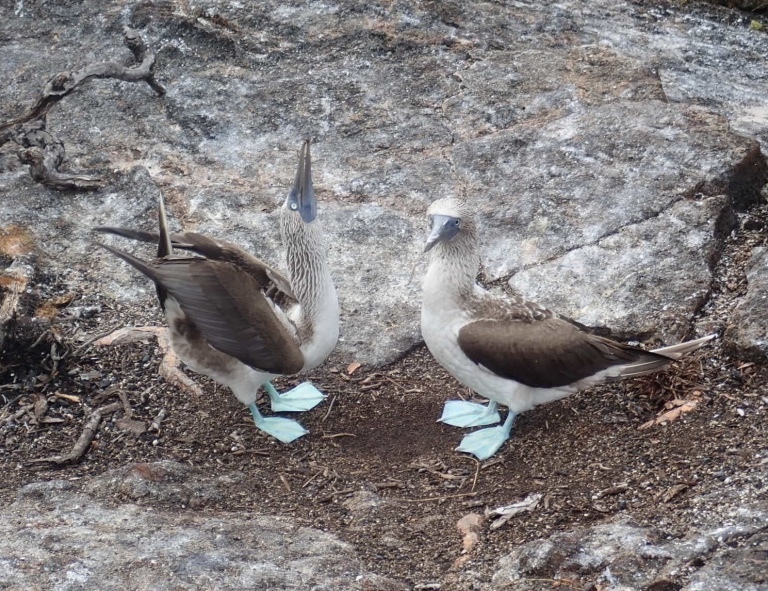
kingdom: Animalia
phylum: Chordata
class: Aves
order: Suliformes
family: Sulidae
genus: Sula
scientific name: Sula nebouxii
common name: Blue-footed booby
